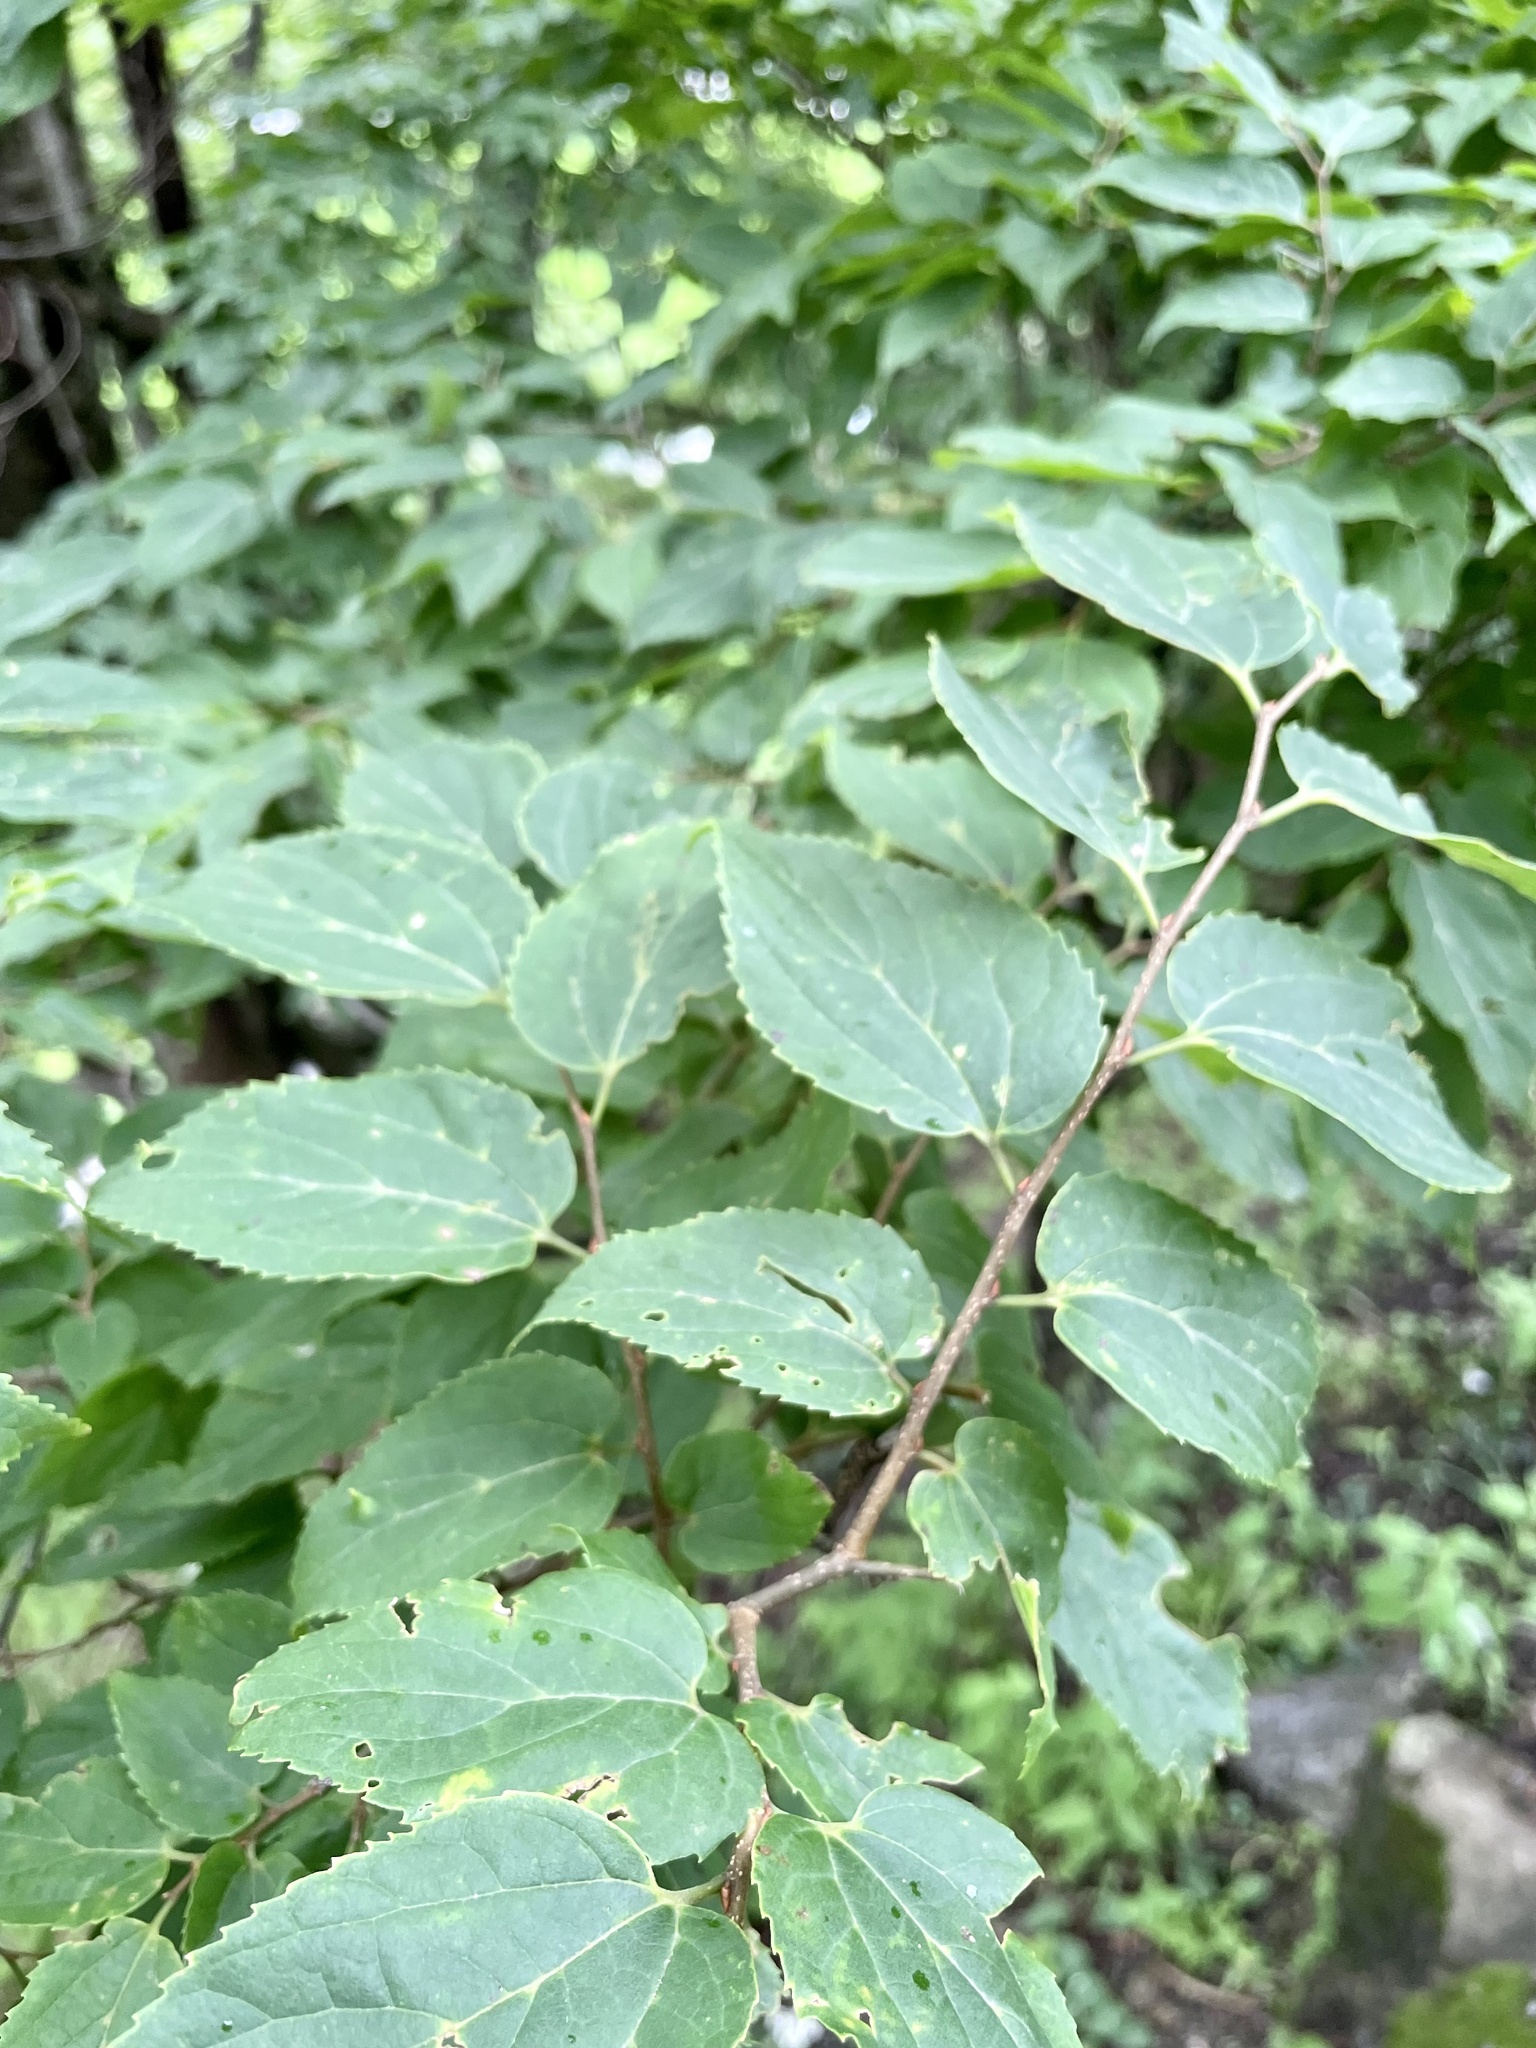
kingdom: Plantae
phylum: Tracheophyta
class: Magnoliopsida
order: Rosales
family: Cannabaceae
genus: Celtis
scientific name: Celtis jessoensis
